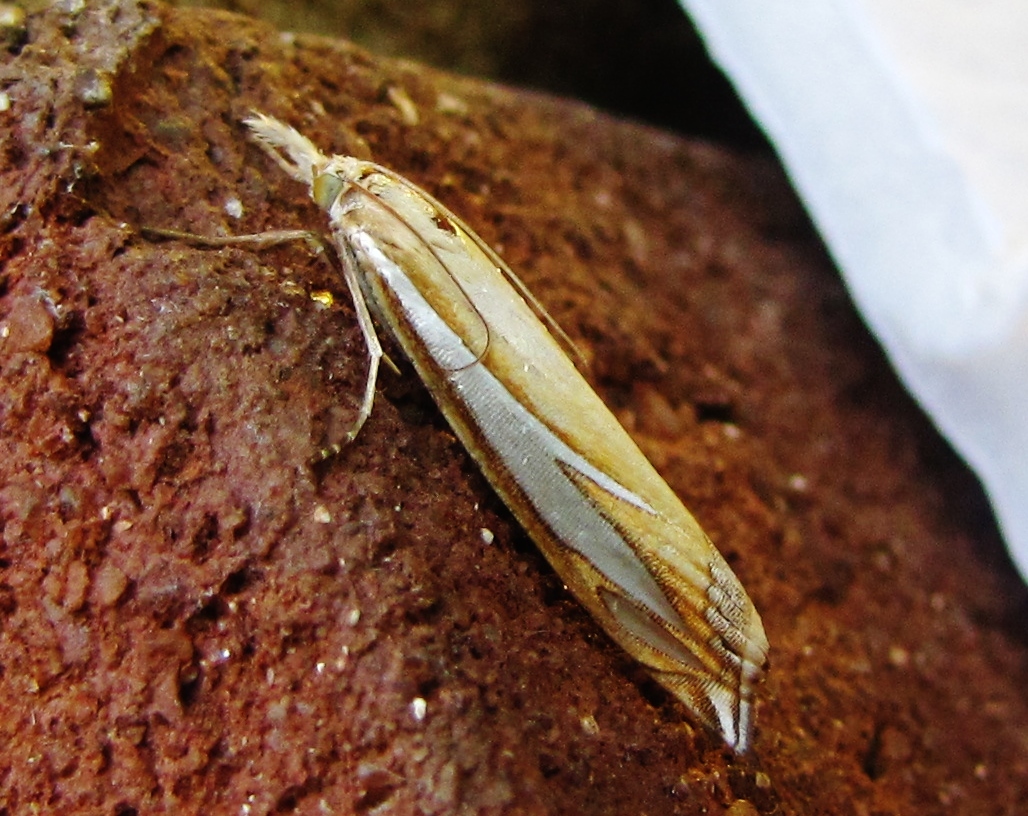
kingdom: Animalia
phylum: Arthropoda
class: Insecta
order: Lepidoptera
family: Crambidae
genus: Crambus
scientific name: Crambus satrapellus
